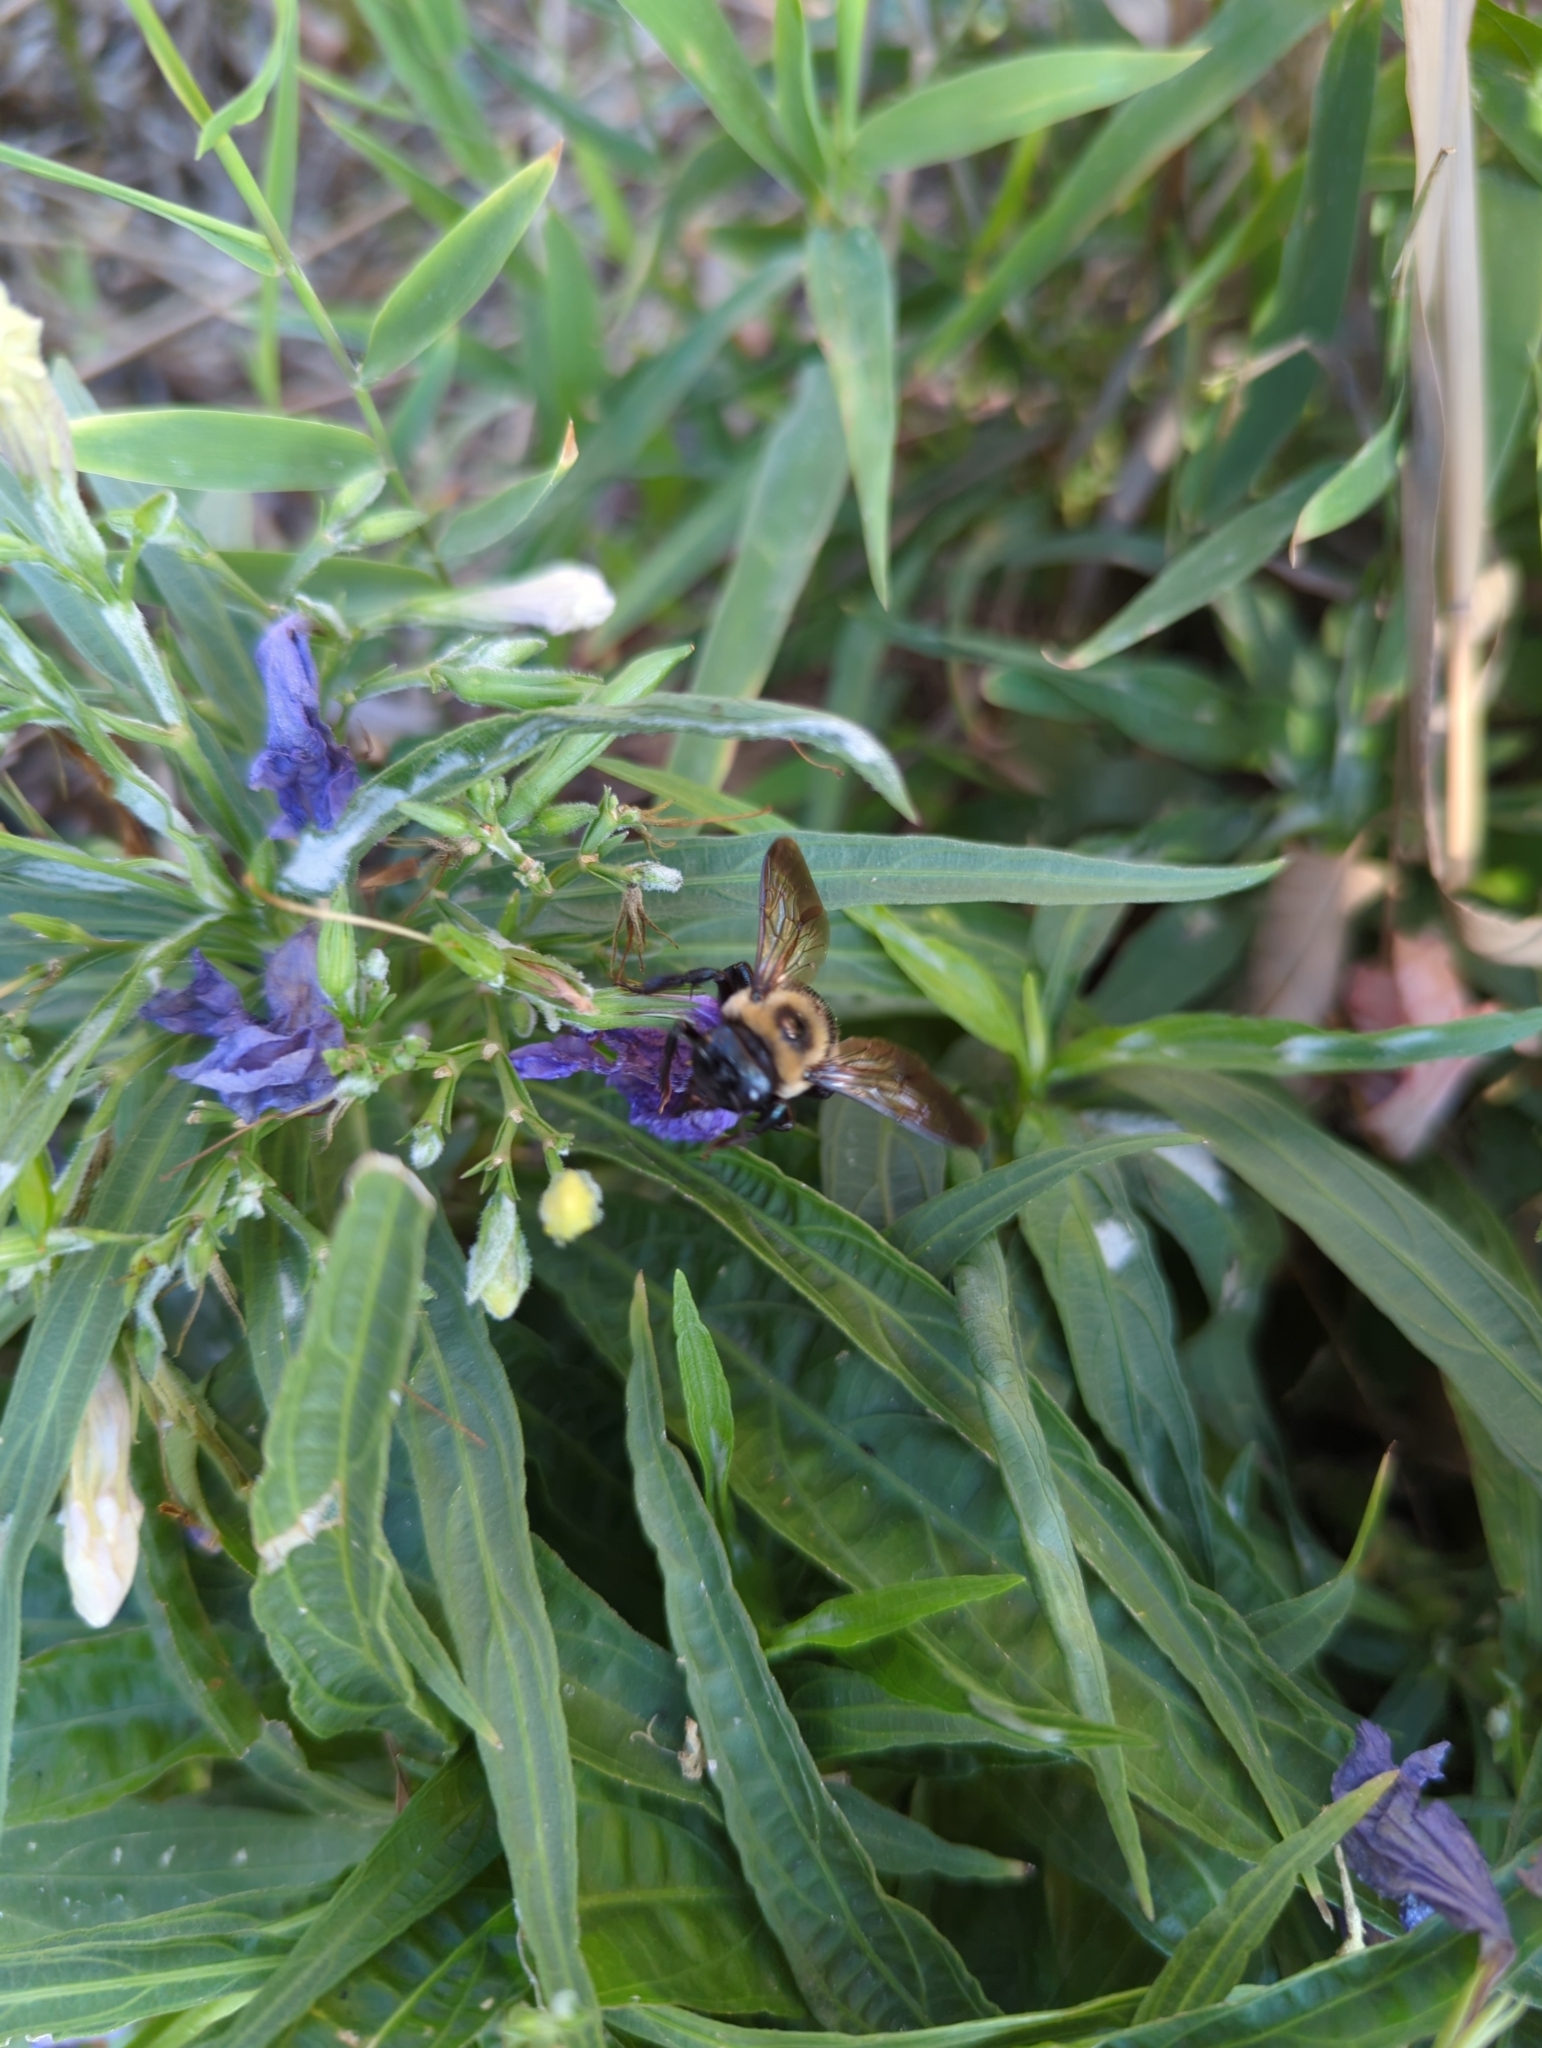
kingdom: Animalia
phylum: Arthropoda
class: Insecta
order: Hymenoptera
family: Apidae
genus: Xylocopa
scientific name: Xylocopa virginica
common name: Carpenter bee
